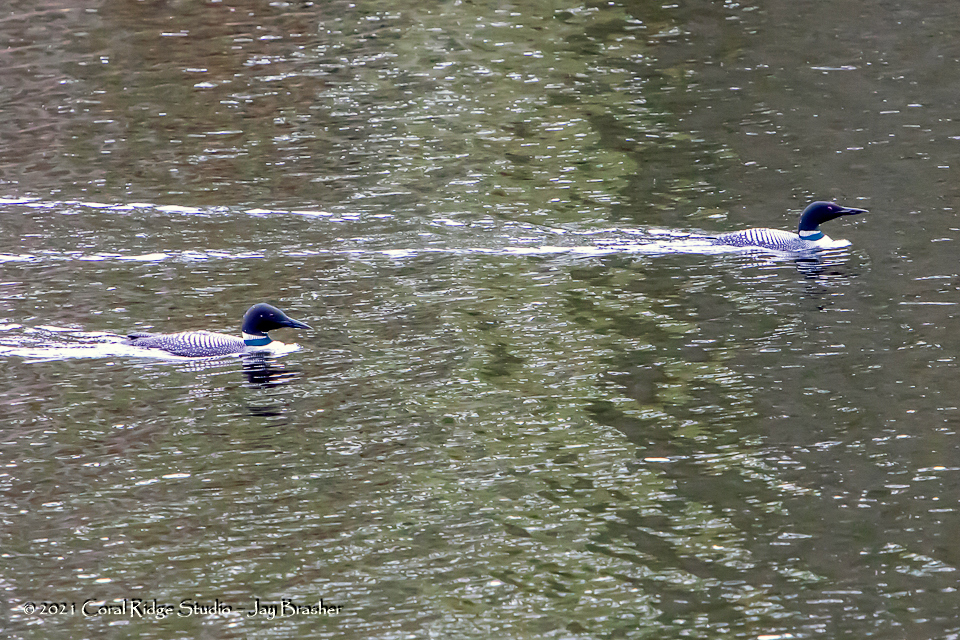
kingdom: Animalia
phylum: Chordata
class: Aves
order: Gaviiformes
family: Gaviidae
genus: Gavia
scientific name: Gavia immer
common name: Common loon
